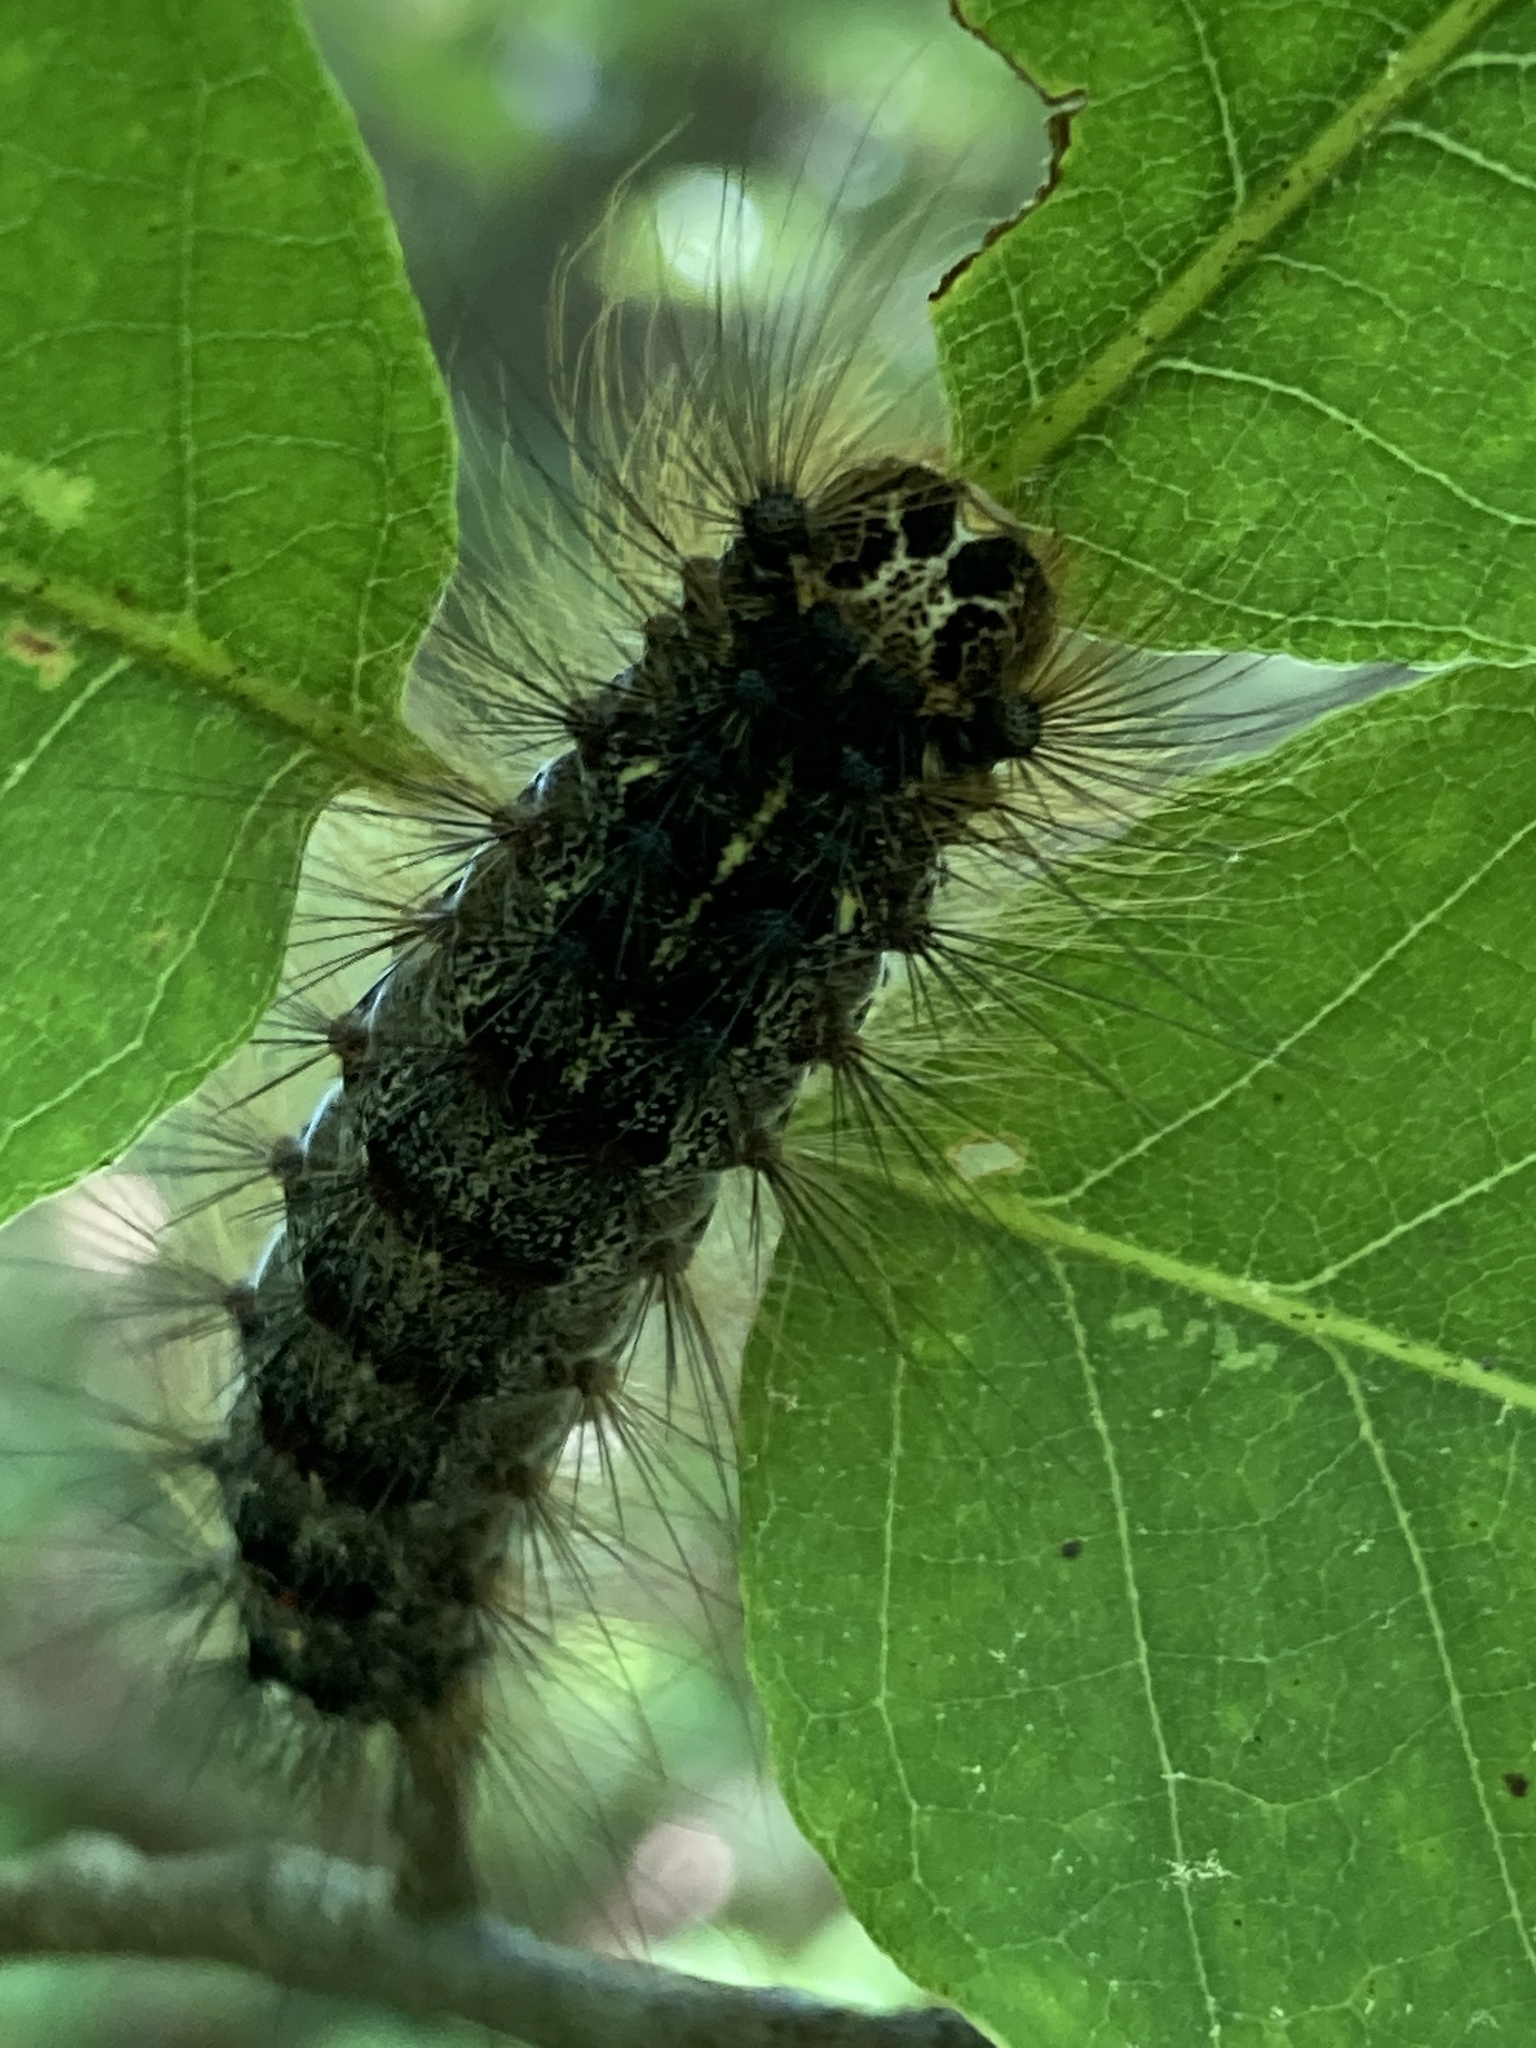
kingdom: Animalia
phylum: Arthropoda
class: Insecta
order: Lepidoptera
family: Erebidae
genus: Lymantria
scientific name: Lymantria dispar
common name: Gypsy moth
